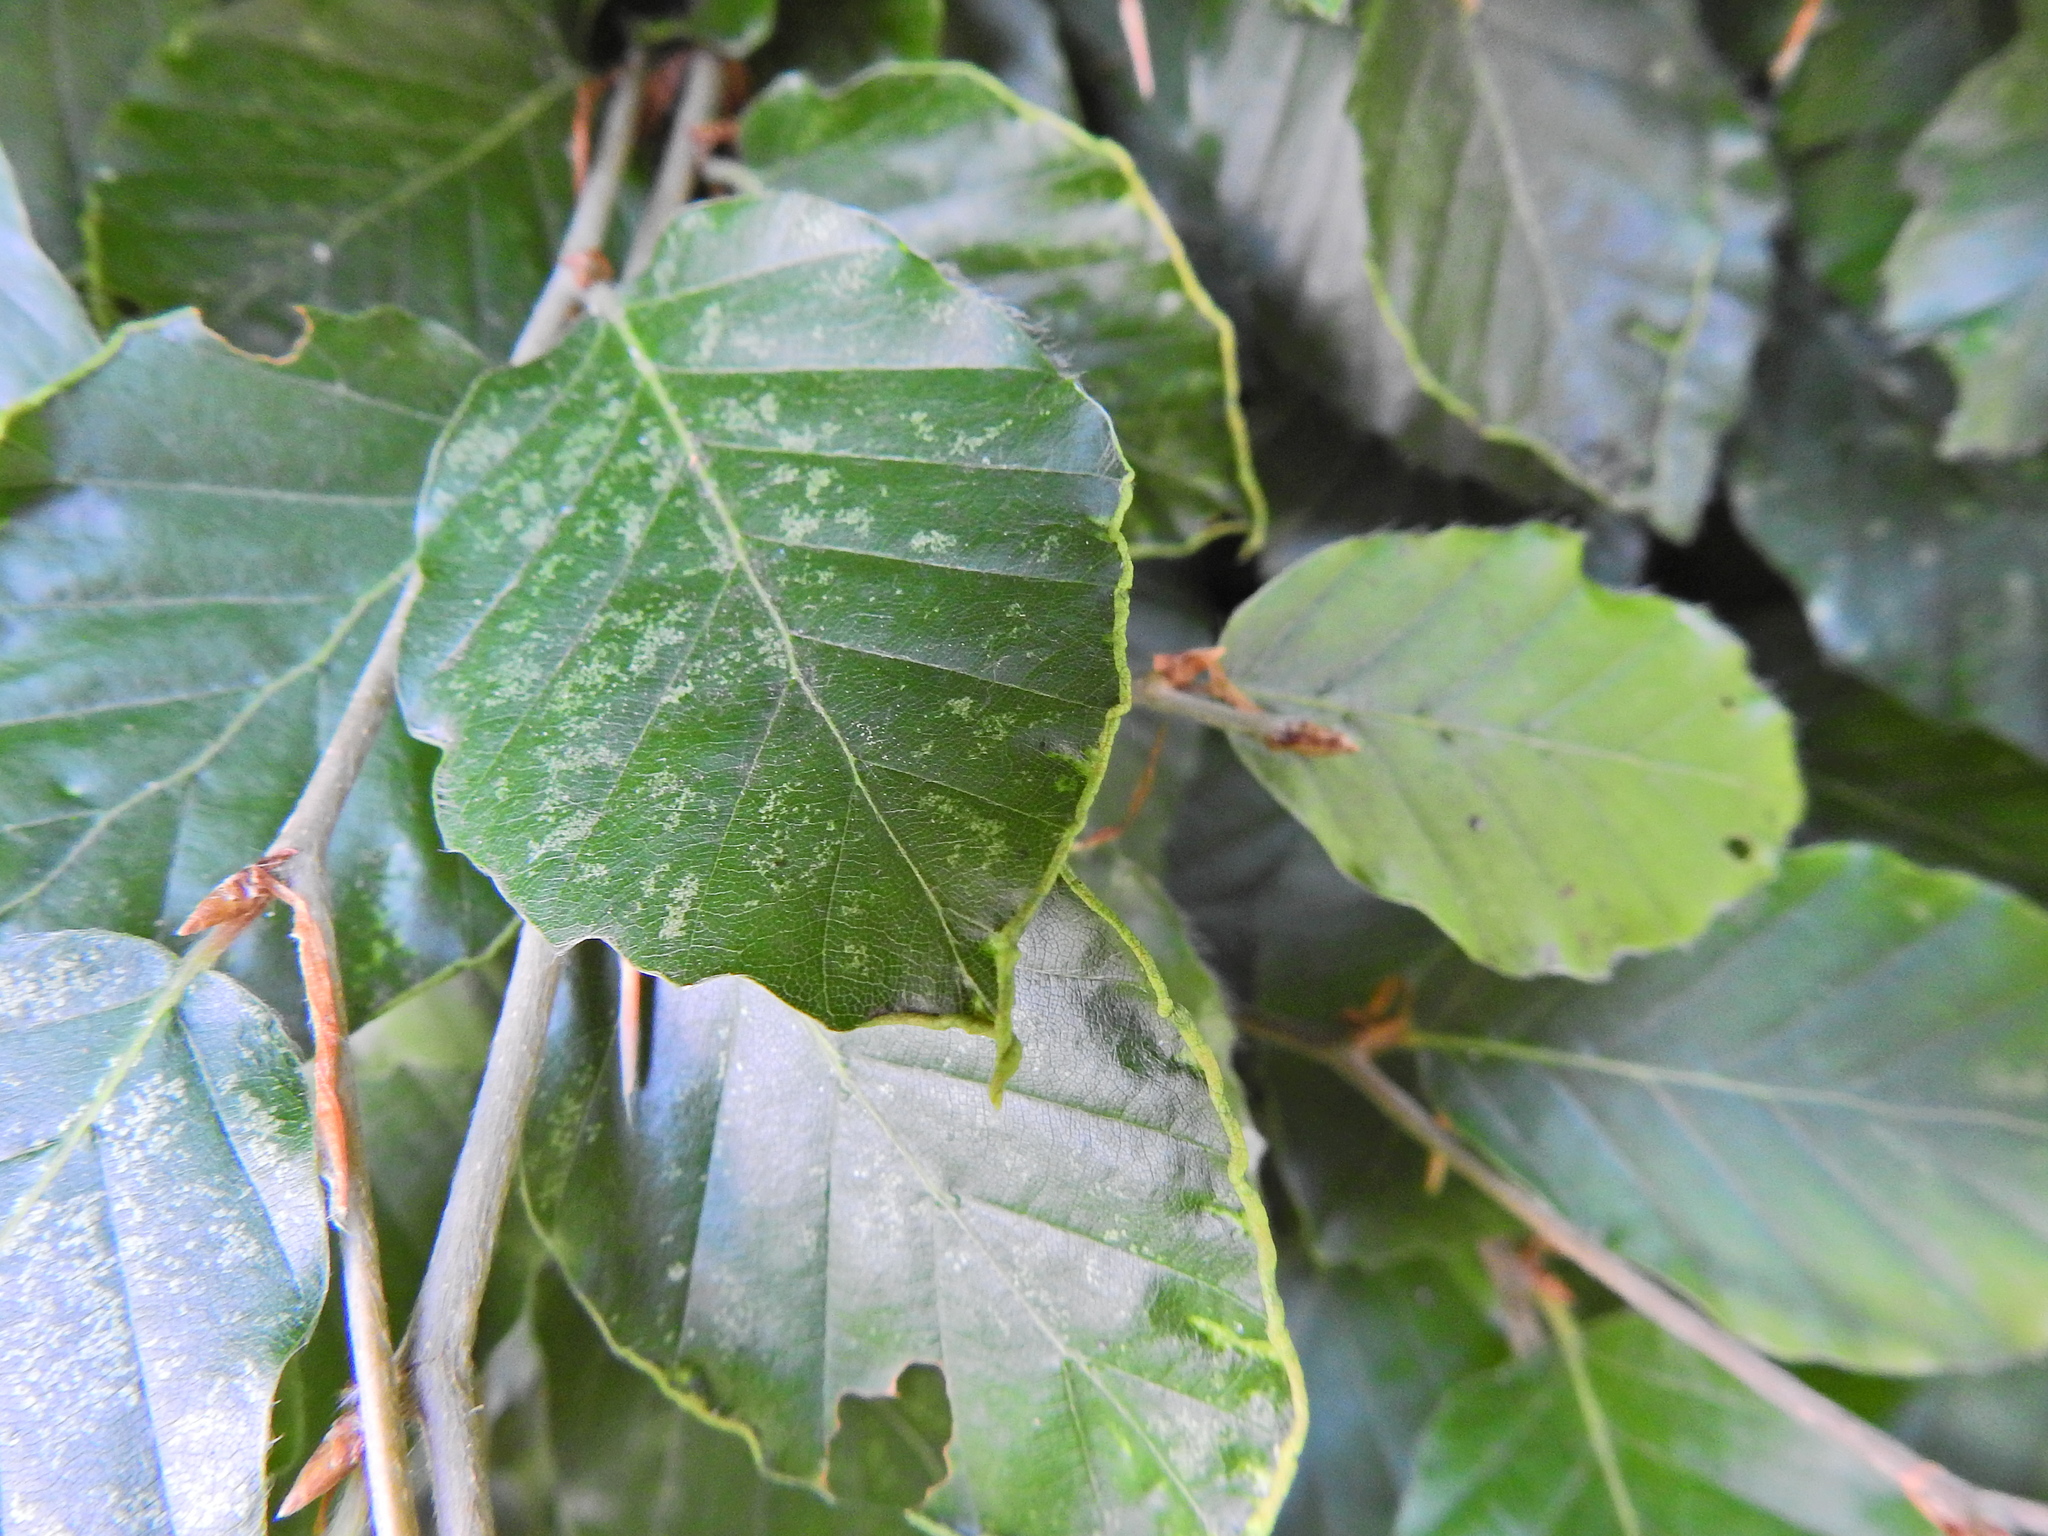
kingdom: Animalia
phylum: Arthropoda
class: Arachnida
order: Trombidiformes
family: Eriophyidae
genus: Acalitus
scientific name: Acalitus stenaspis
